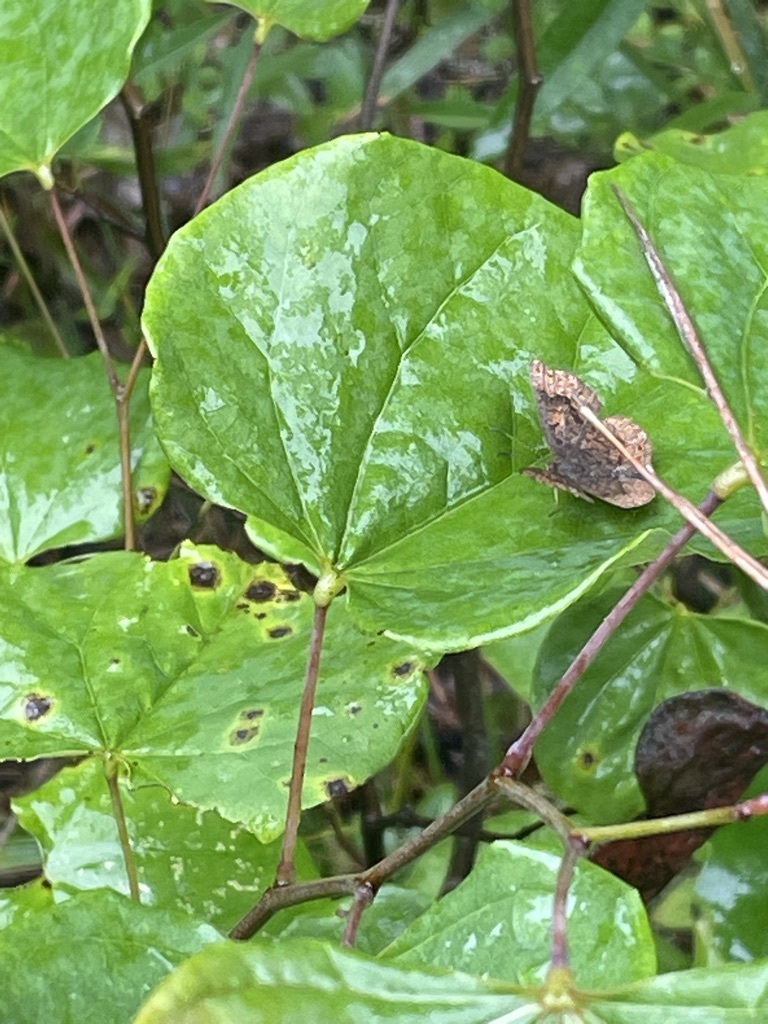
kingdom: Animalia
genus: Calephelis
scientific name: Calephelis borealis
